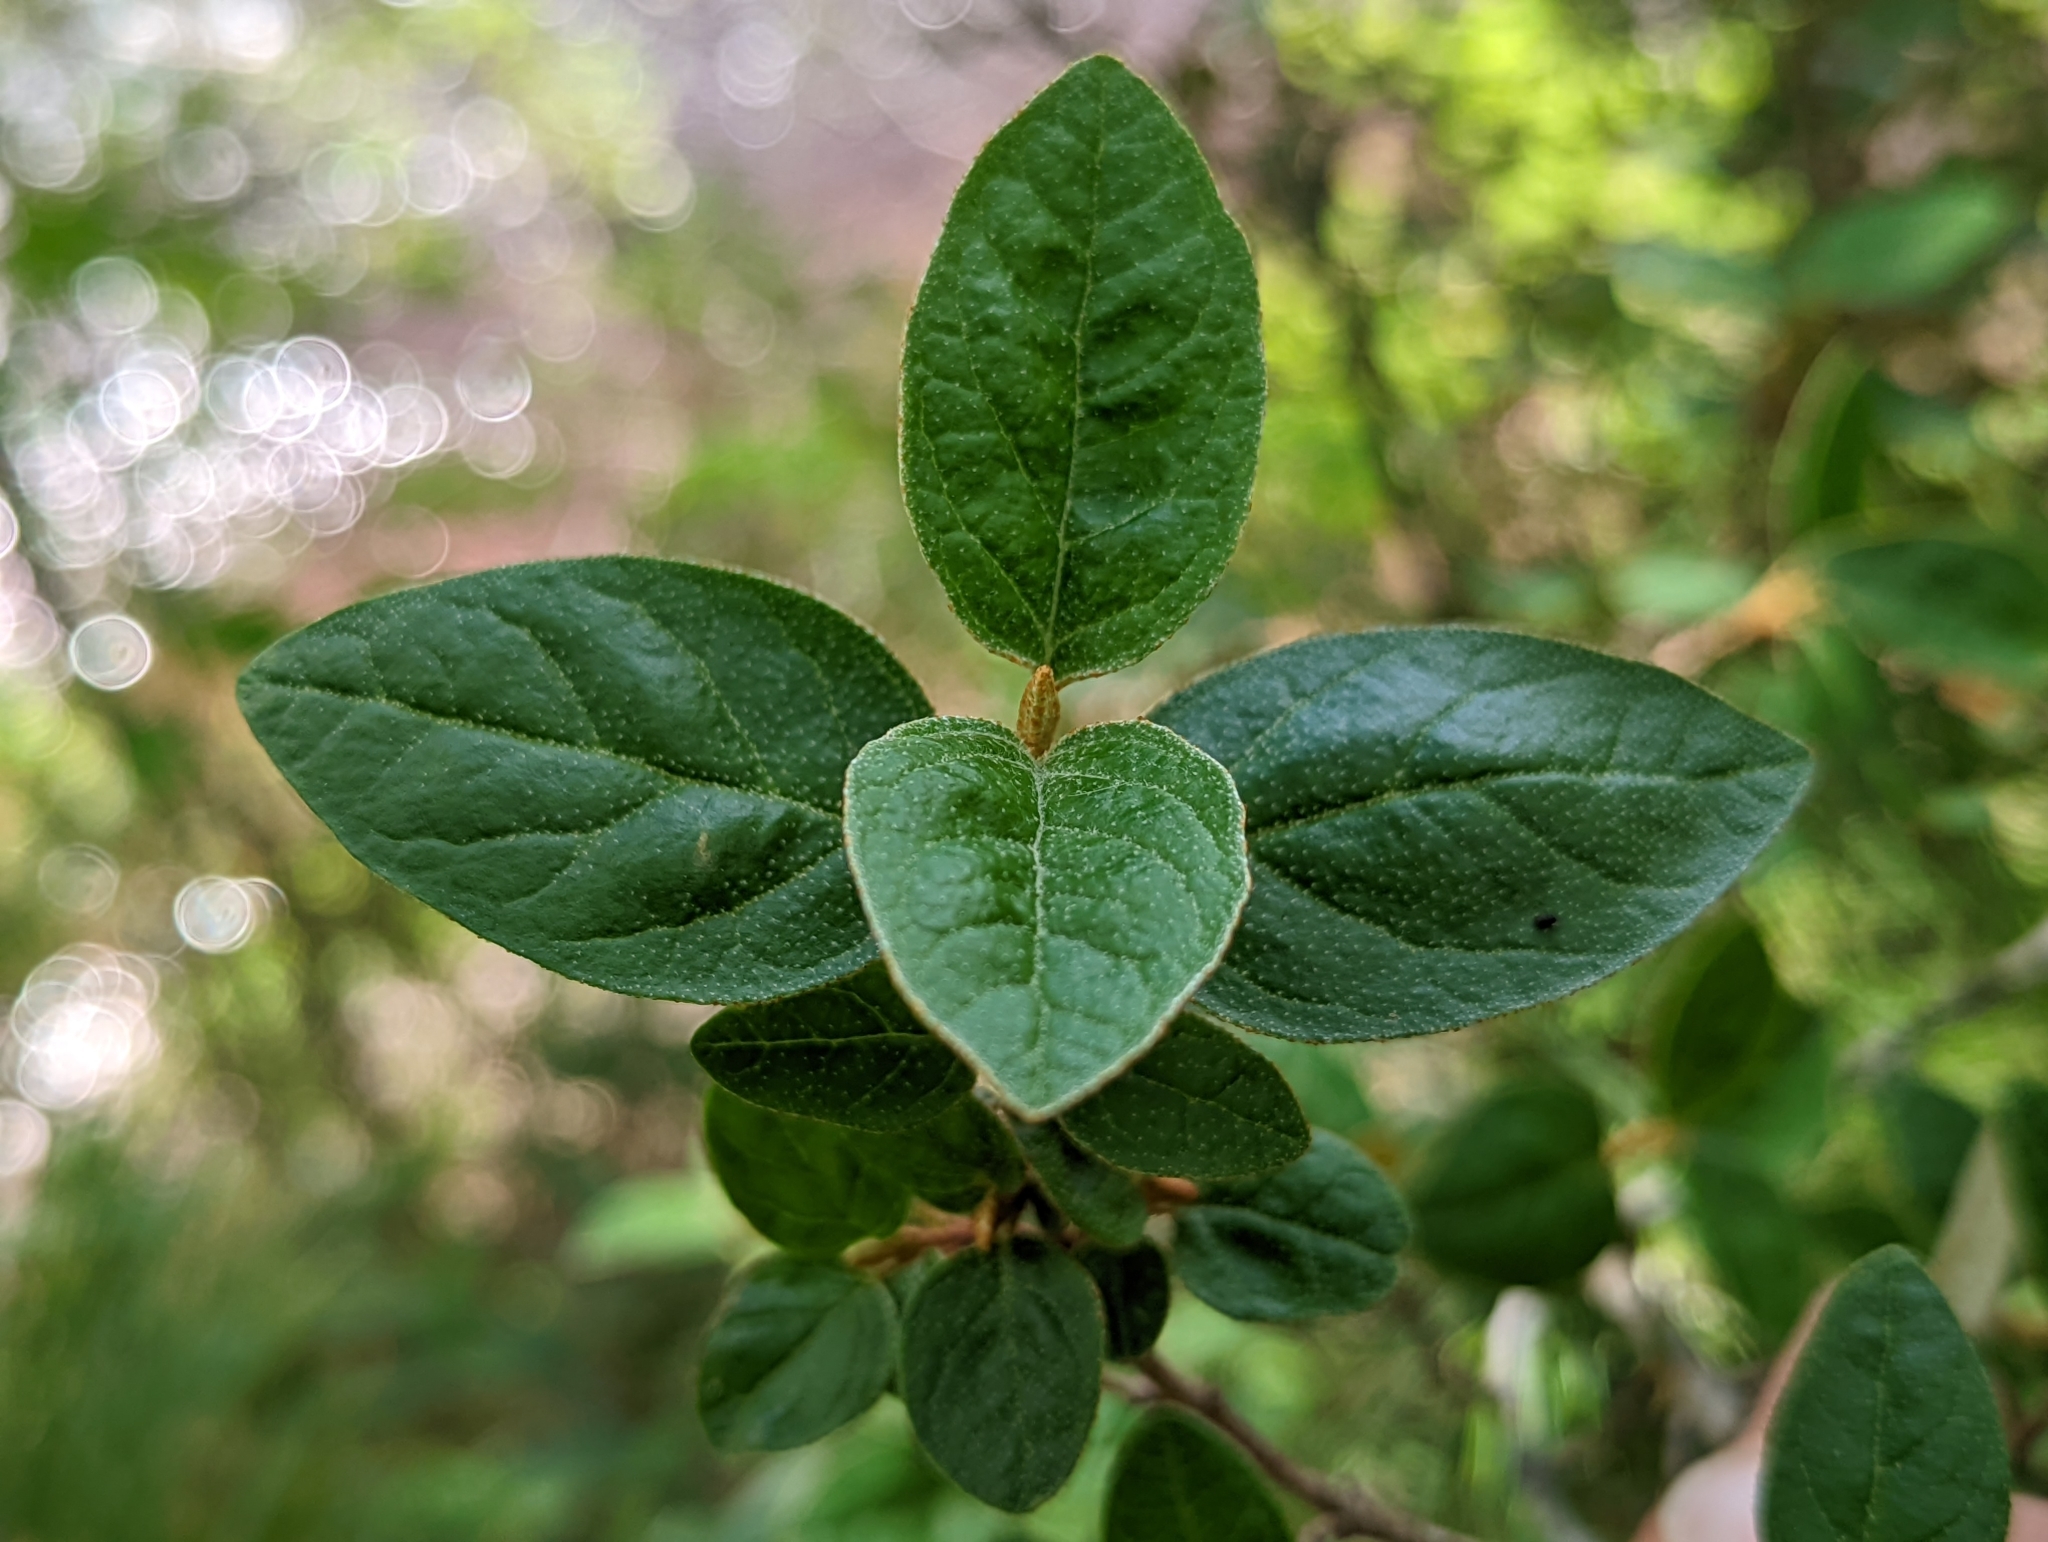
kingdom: Plantae
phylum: Tracheophyta
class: Magnoliopsida
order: Rosales
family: Elaeagnaceae
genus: Shepherdia
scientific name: Shepherdia canadensis
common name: Soapberry
